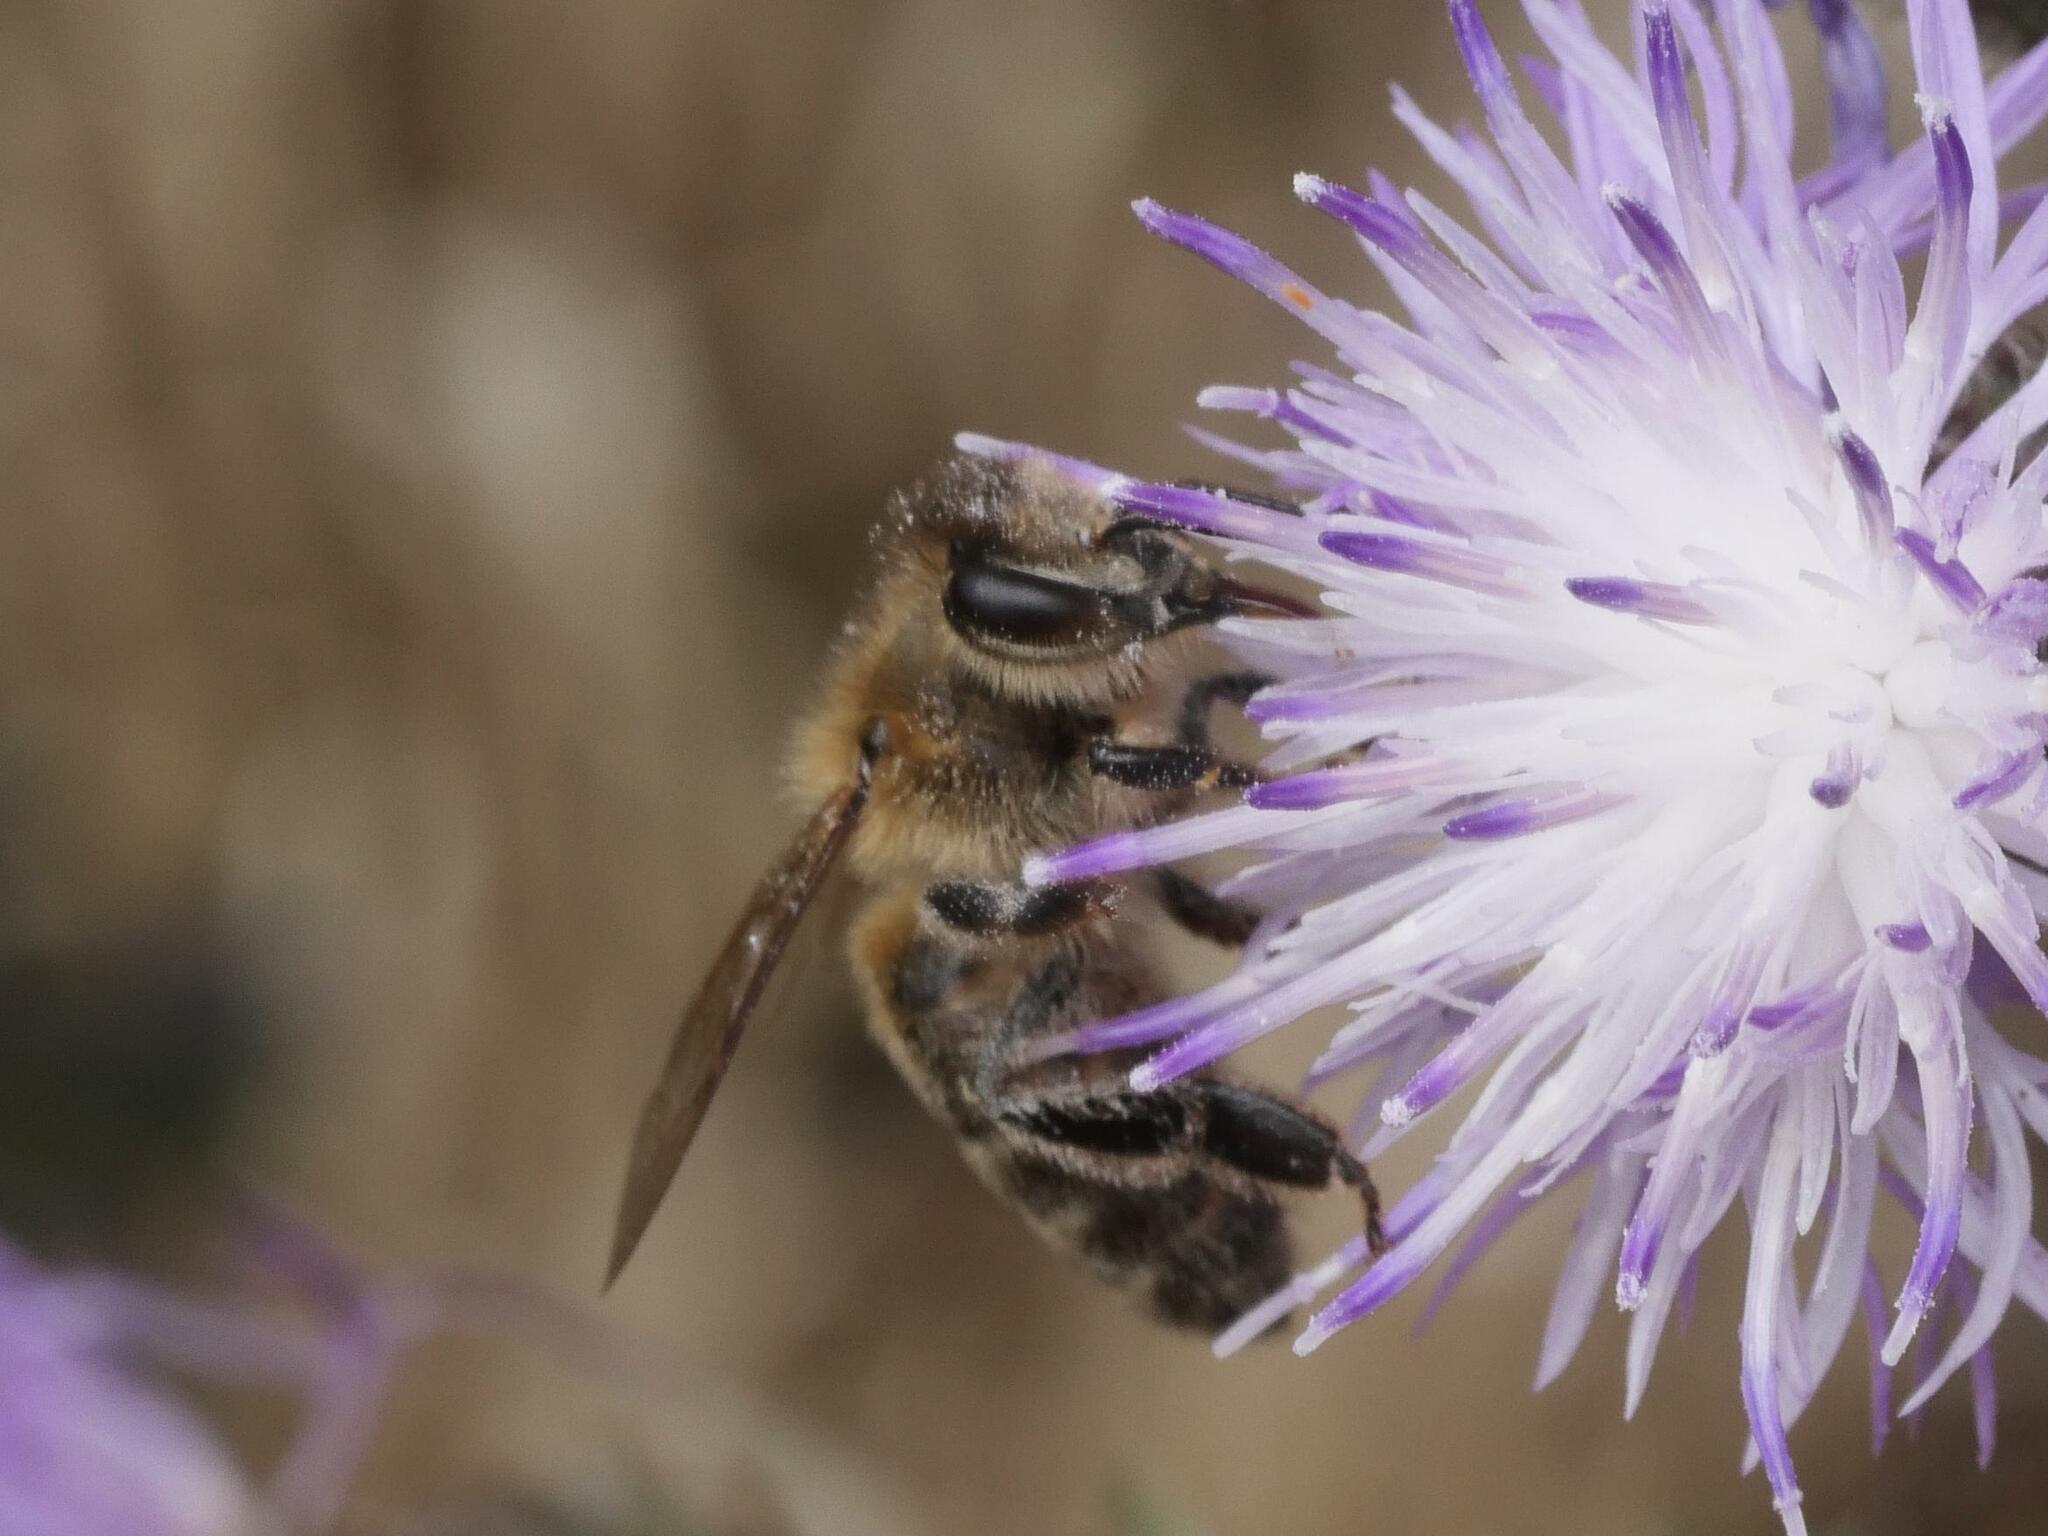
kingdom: Animalia
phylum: Arthropoda
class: Insecta
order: Hymenoptera
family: Apidae
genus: Apis
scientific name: Apis mellifera
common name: Honey bee
